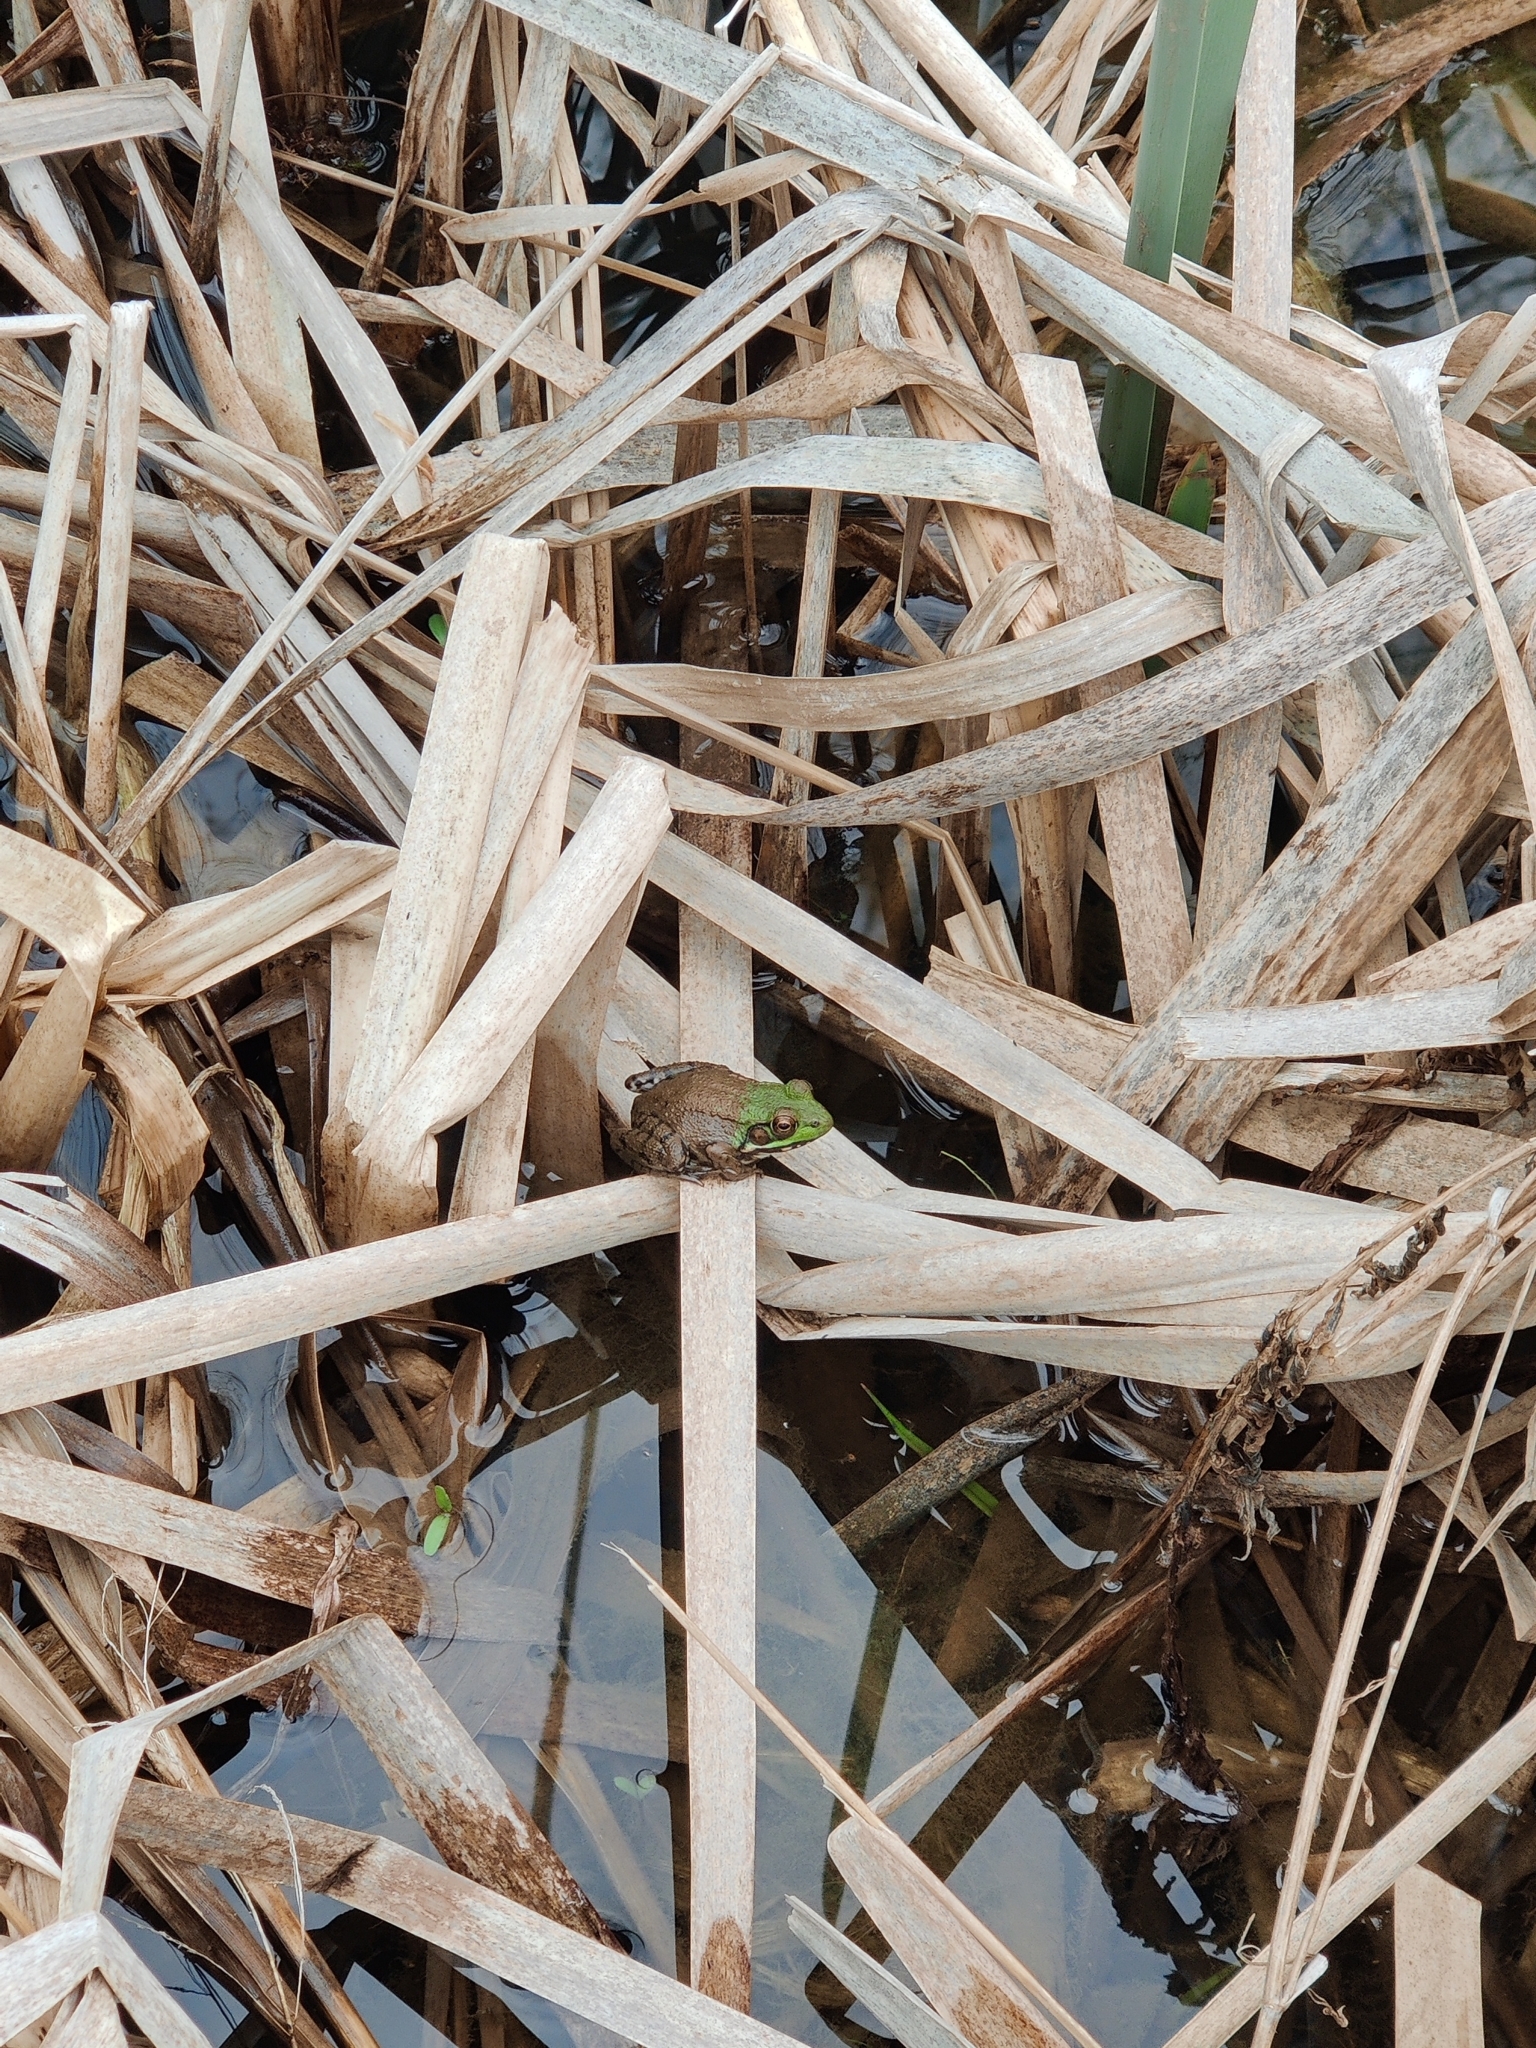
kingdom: Animalia
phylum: Chordata
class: Amphibia
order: Anura
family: Ranidae
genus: Lithobates
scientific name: Lithobates clamitans
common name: Green frog
